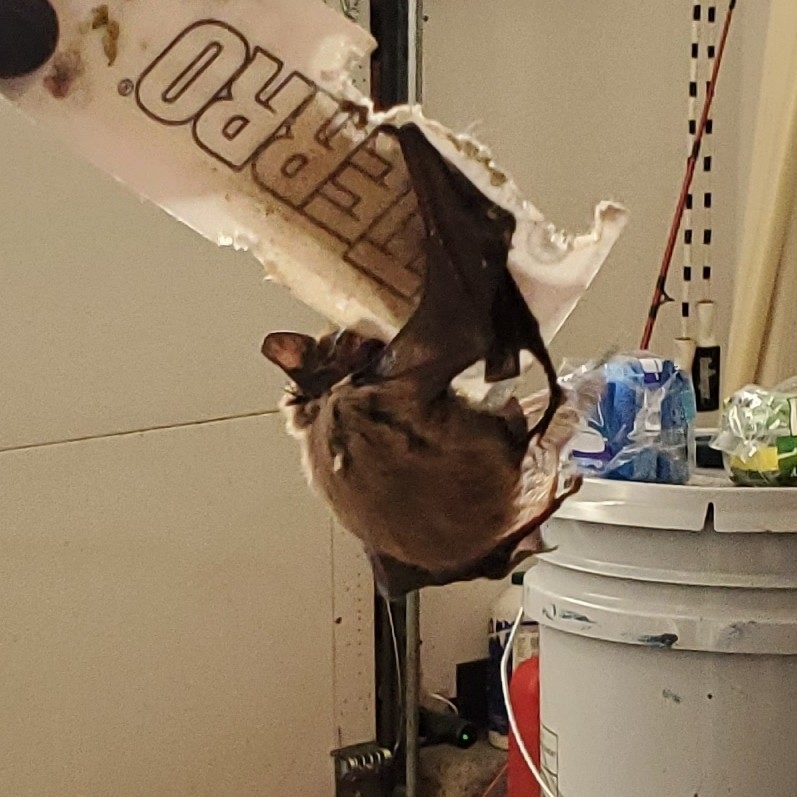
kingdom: Animalia
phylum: Chordata
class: Mammalia
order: Chiroptera
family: Vespertilionidae
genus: Eptesicus
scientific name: Eptesicus fuscus
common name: Big brown bat
